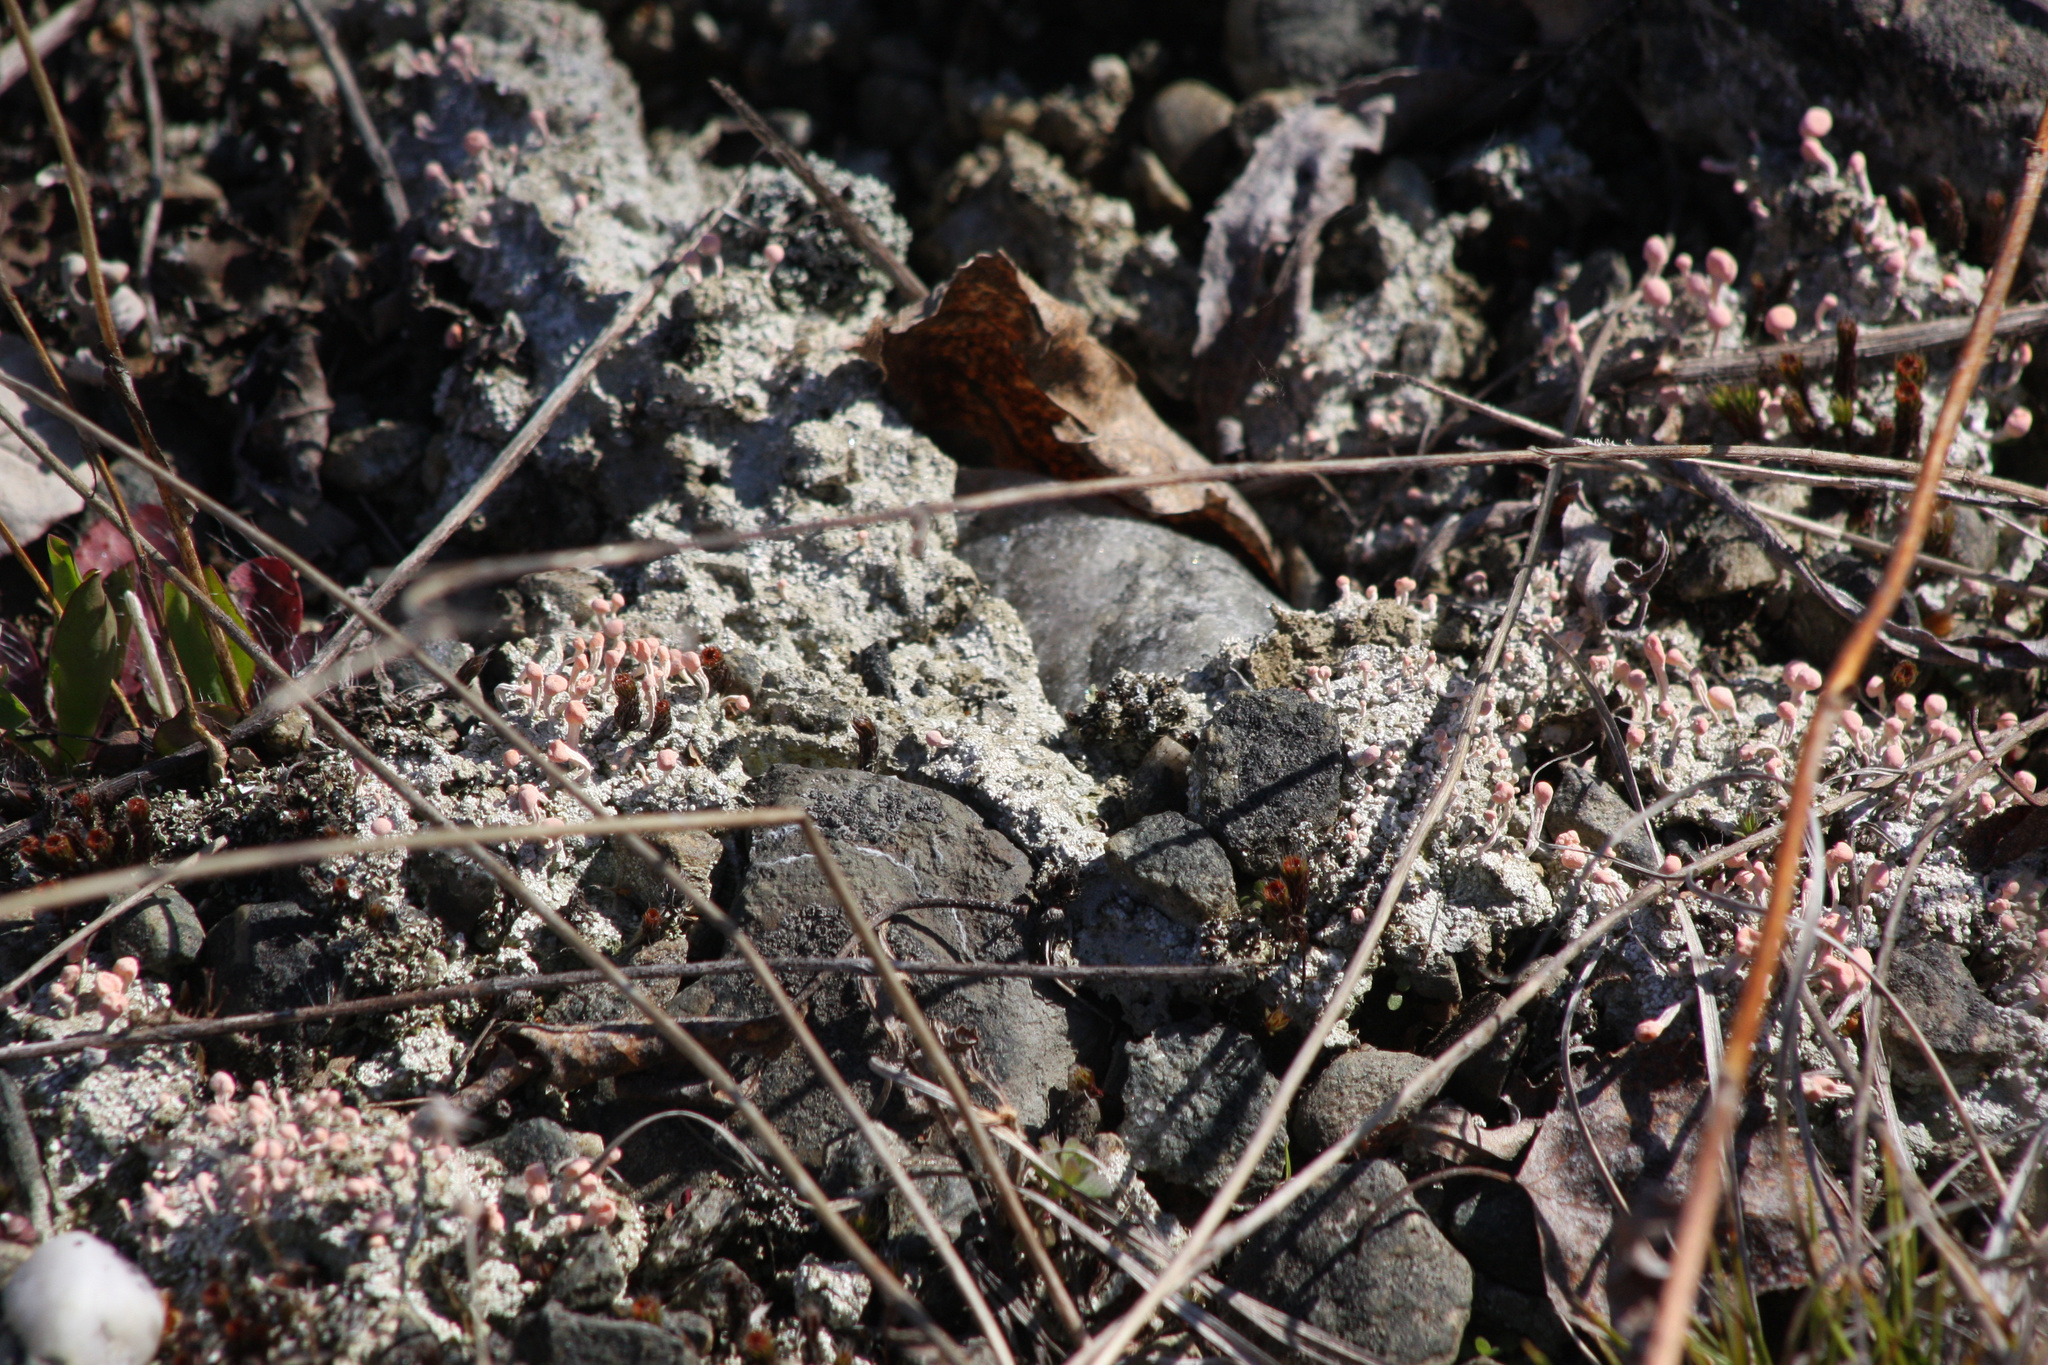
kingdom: Fungi
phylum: Ascomycota
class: Lecanoromycetes
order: Pertusariales
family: Icmadophilaceae
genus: Dibaeis
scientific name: Dibaeis baeomyces
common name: Pink earth lichen
